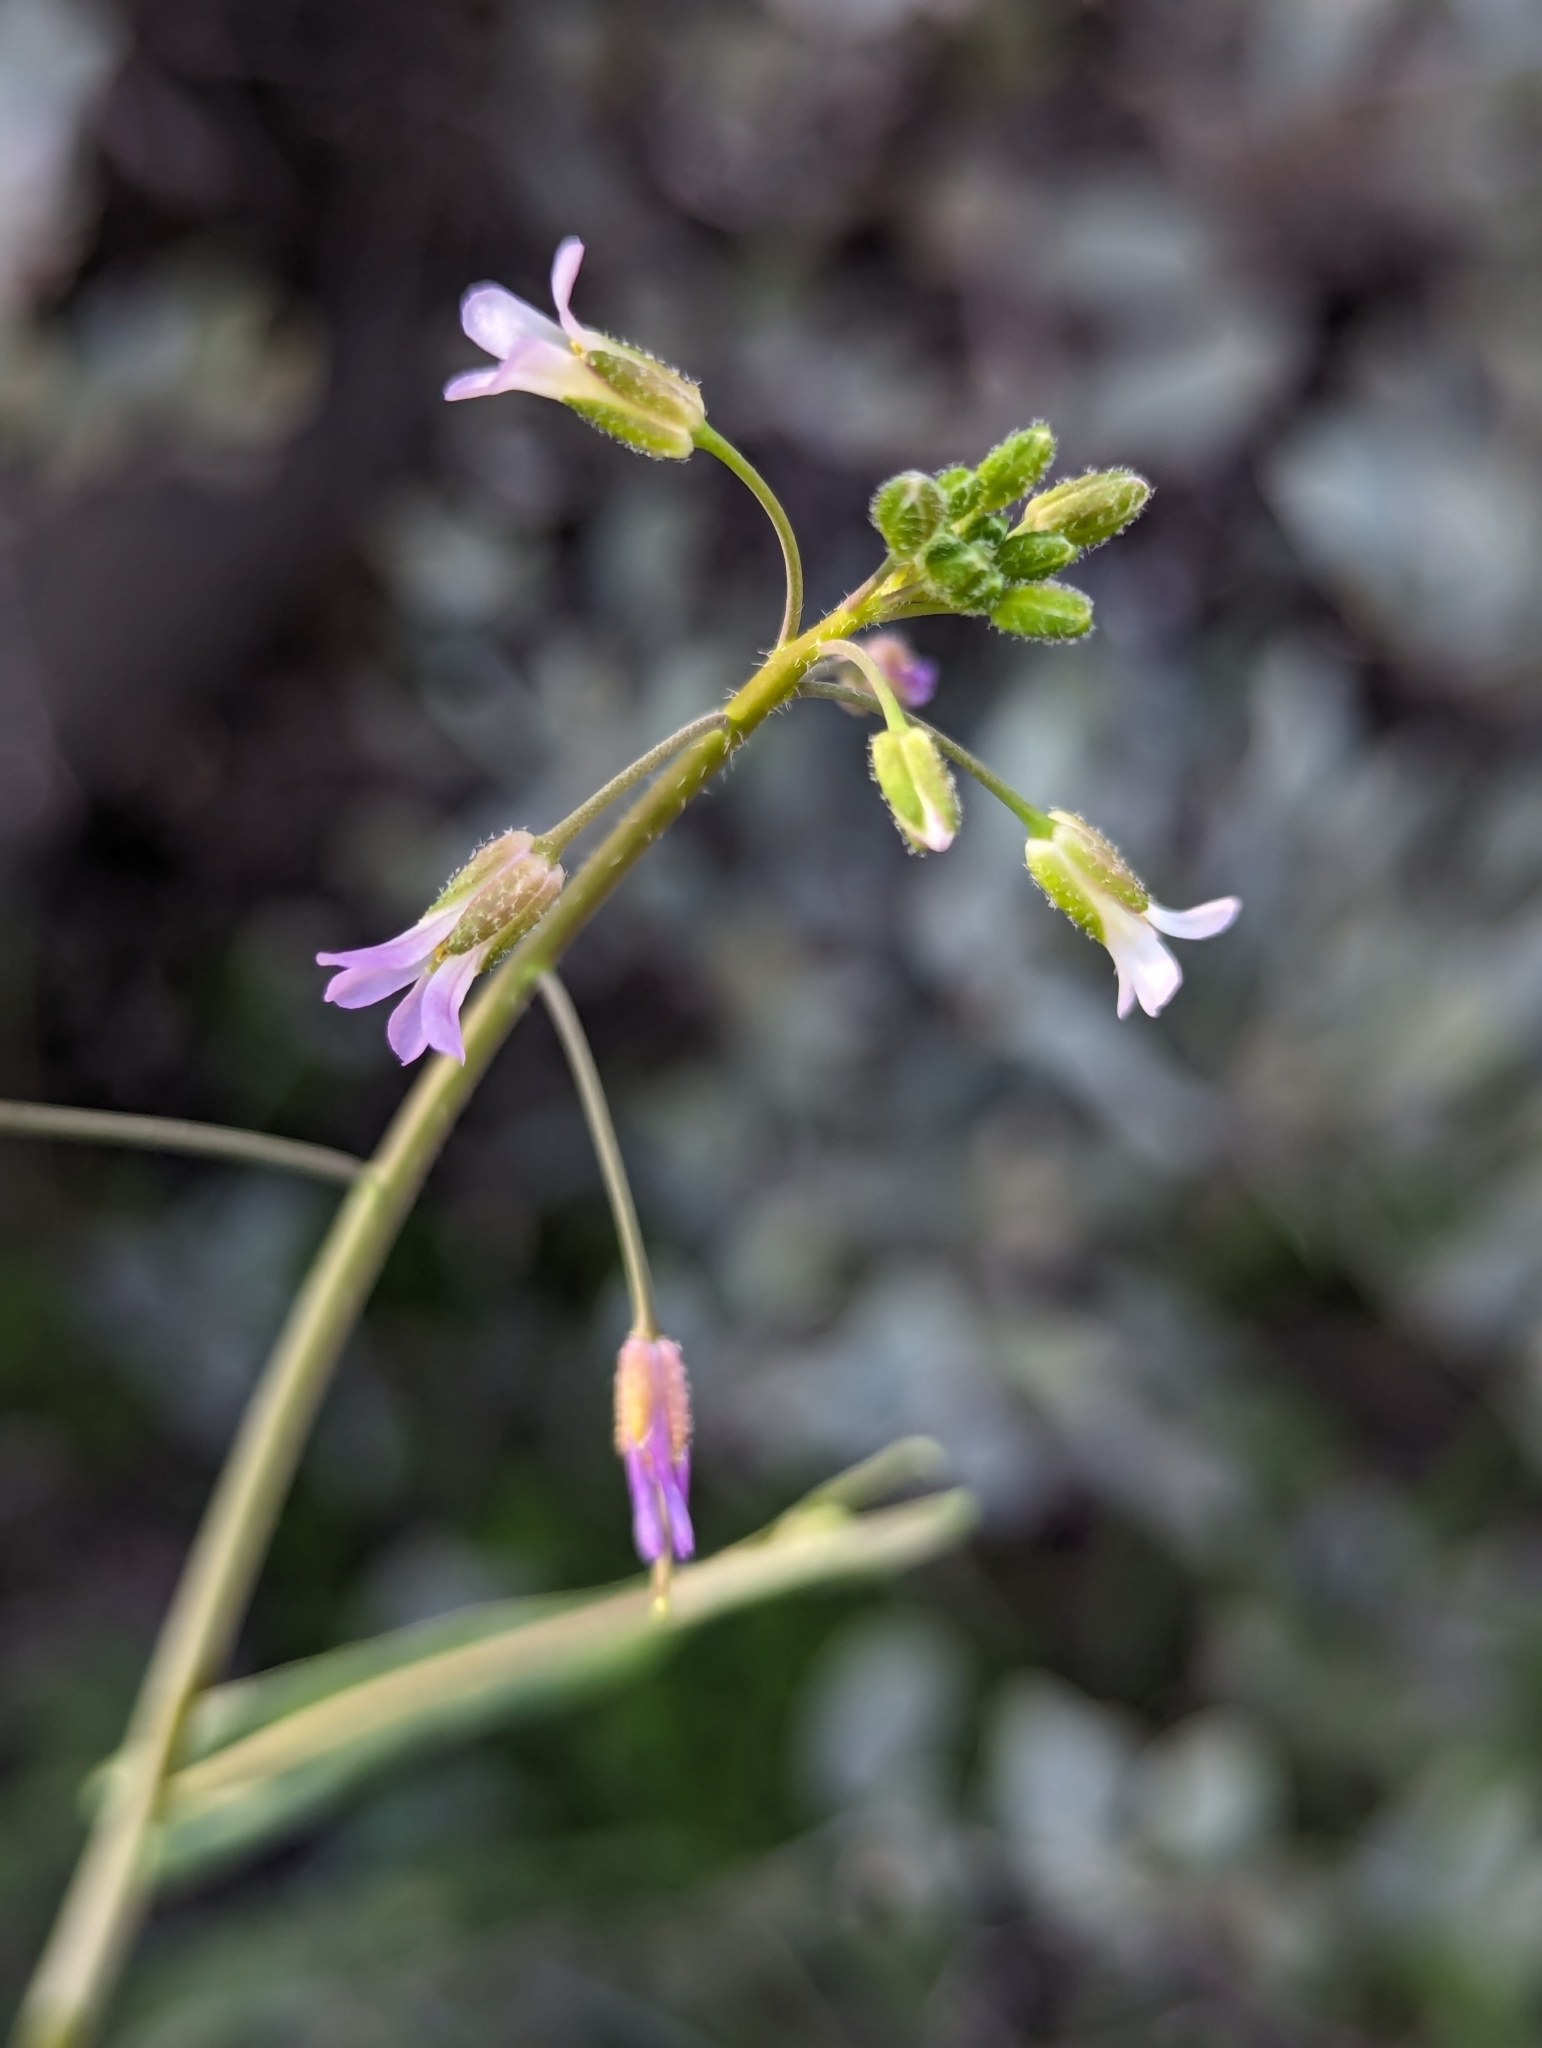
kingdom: Plantae
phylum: Tracheophyta
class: Magnoliopsida
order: Brassicales
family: Brassicaceae
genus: Boechera
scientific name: Boechera perennans
